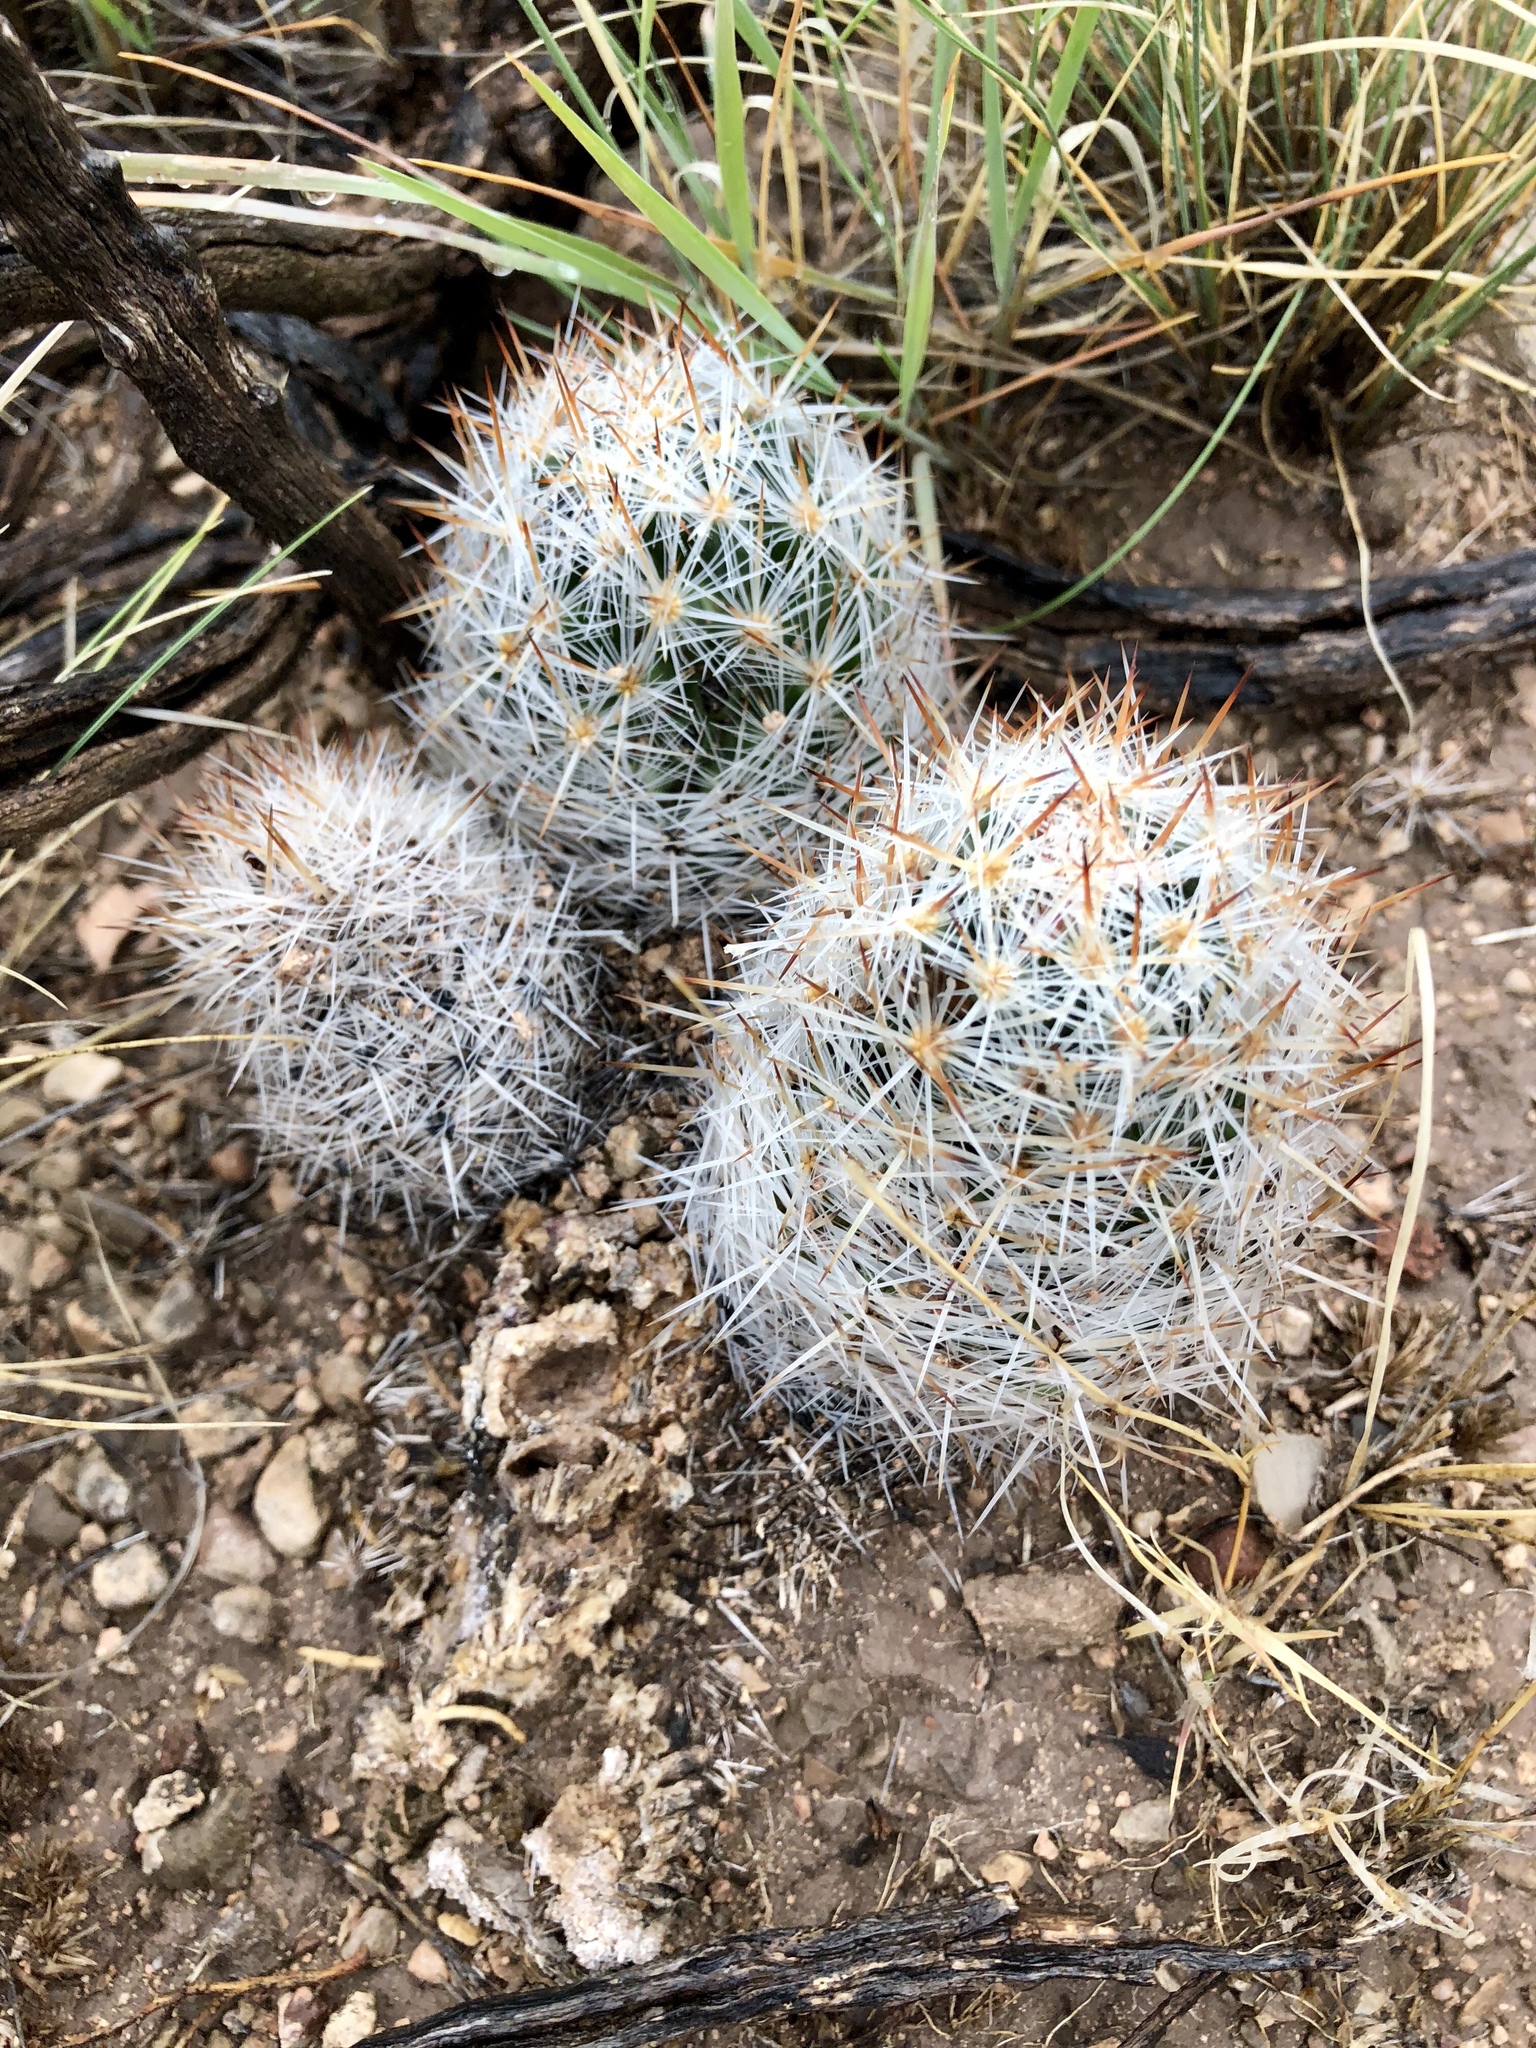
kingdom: Plantae
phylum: Tracheophyta
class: Magnoliopsida
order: Caryophyllales
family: Cactaceae
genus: Pelecyphora
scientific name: Pelecyphora sneedii
